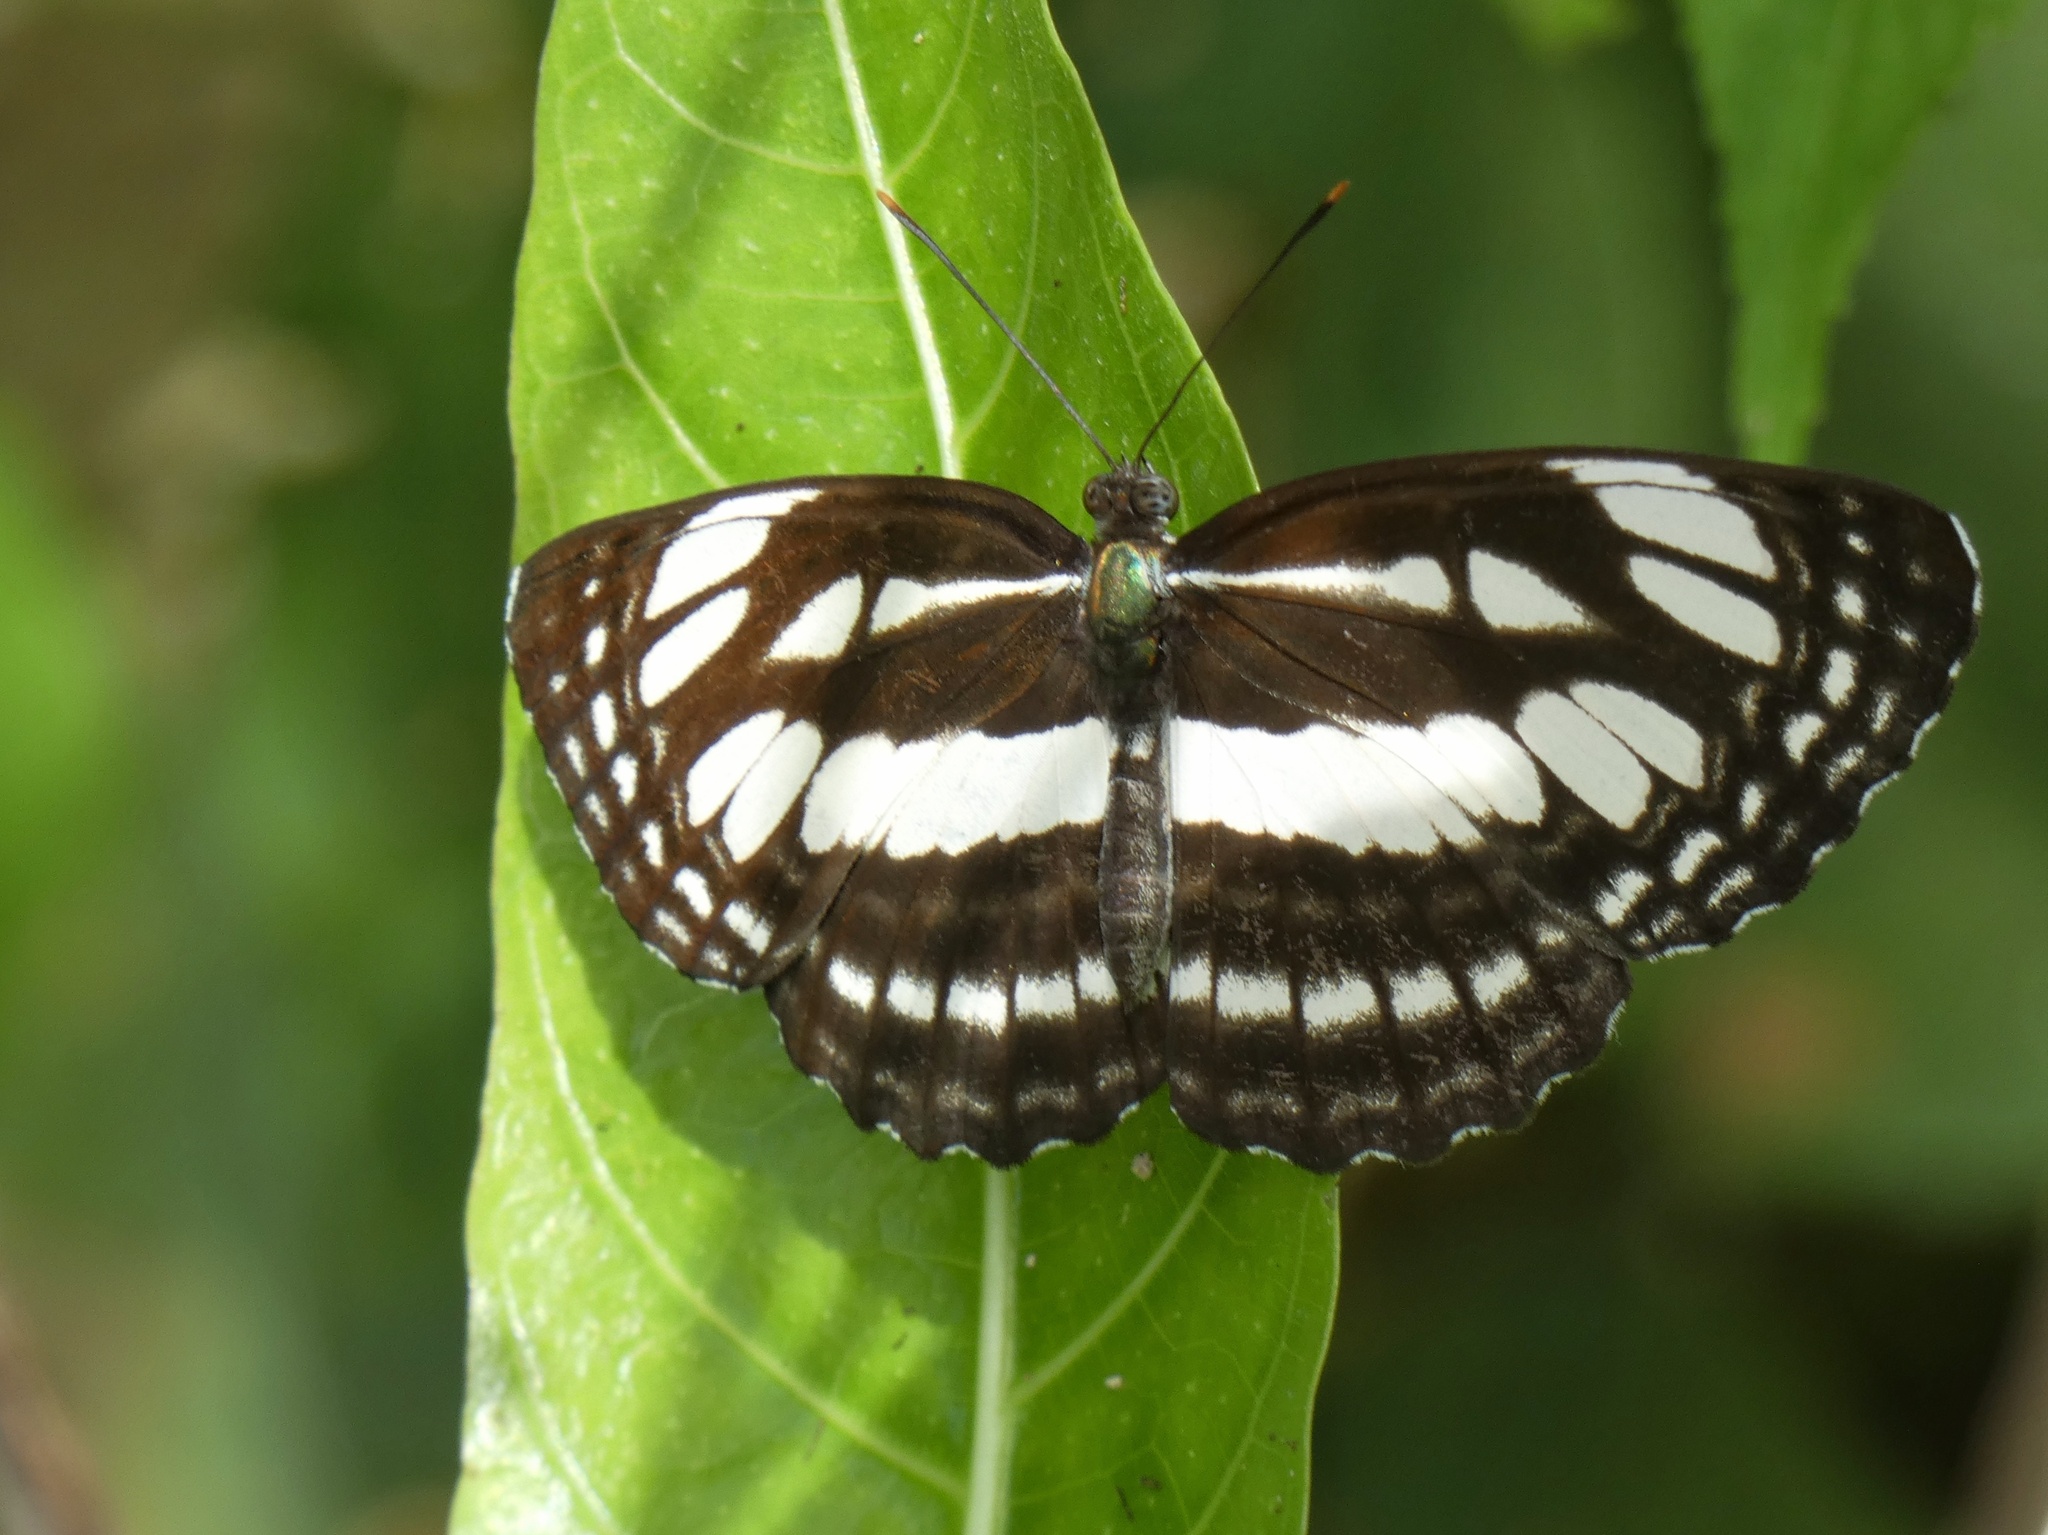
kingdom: Animalia
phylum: Arthropoda
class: Insecta
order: Lepidoptera
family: Nymphalidae
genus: Neptis
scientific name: Neptis mindorana
